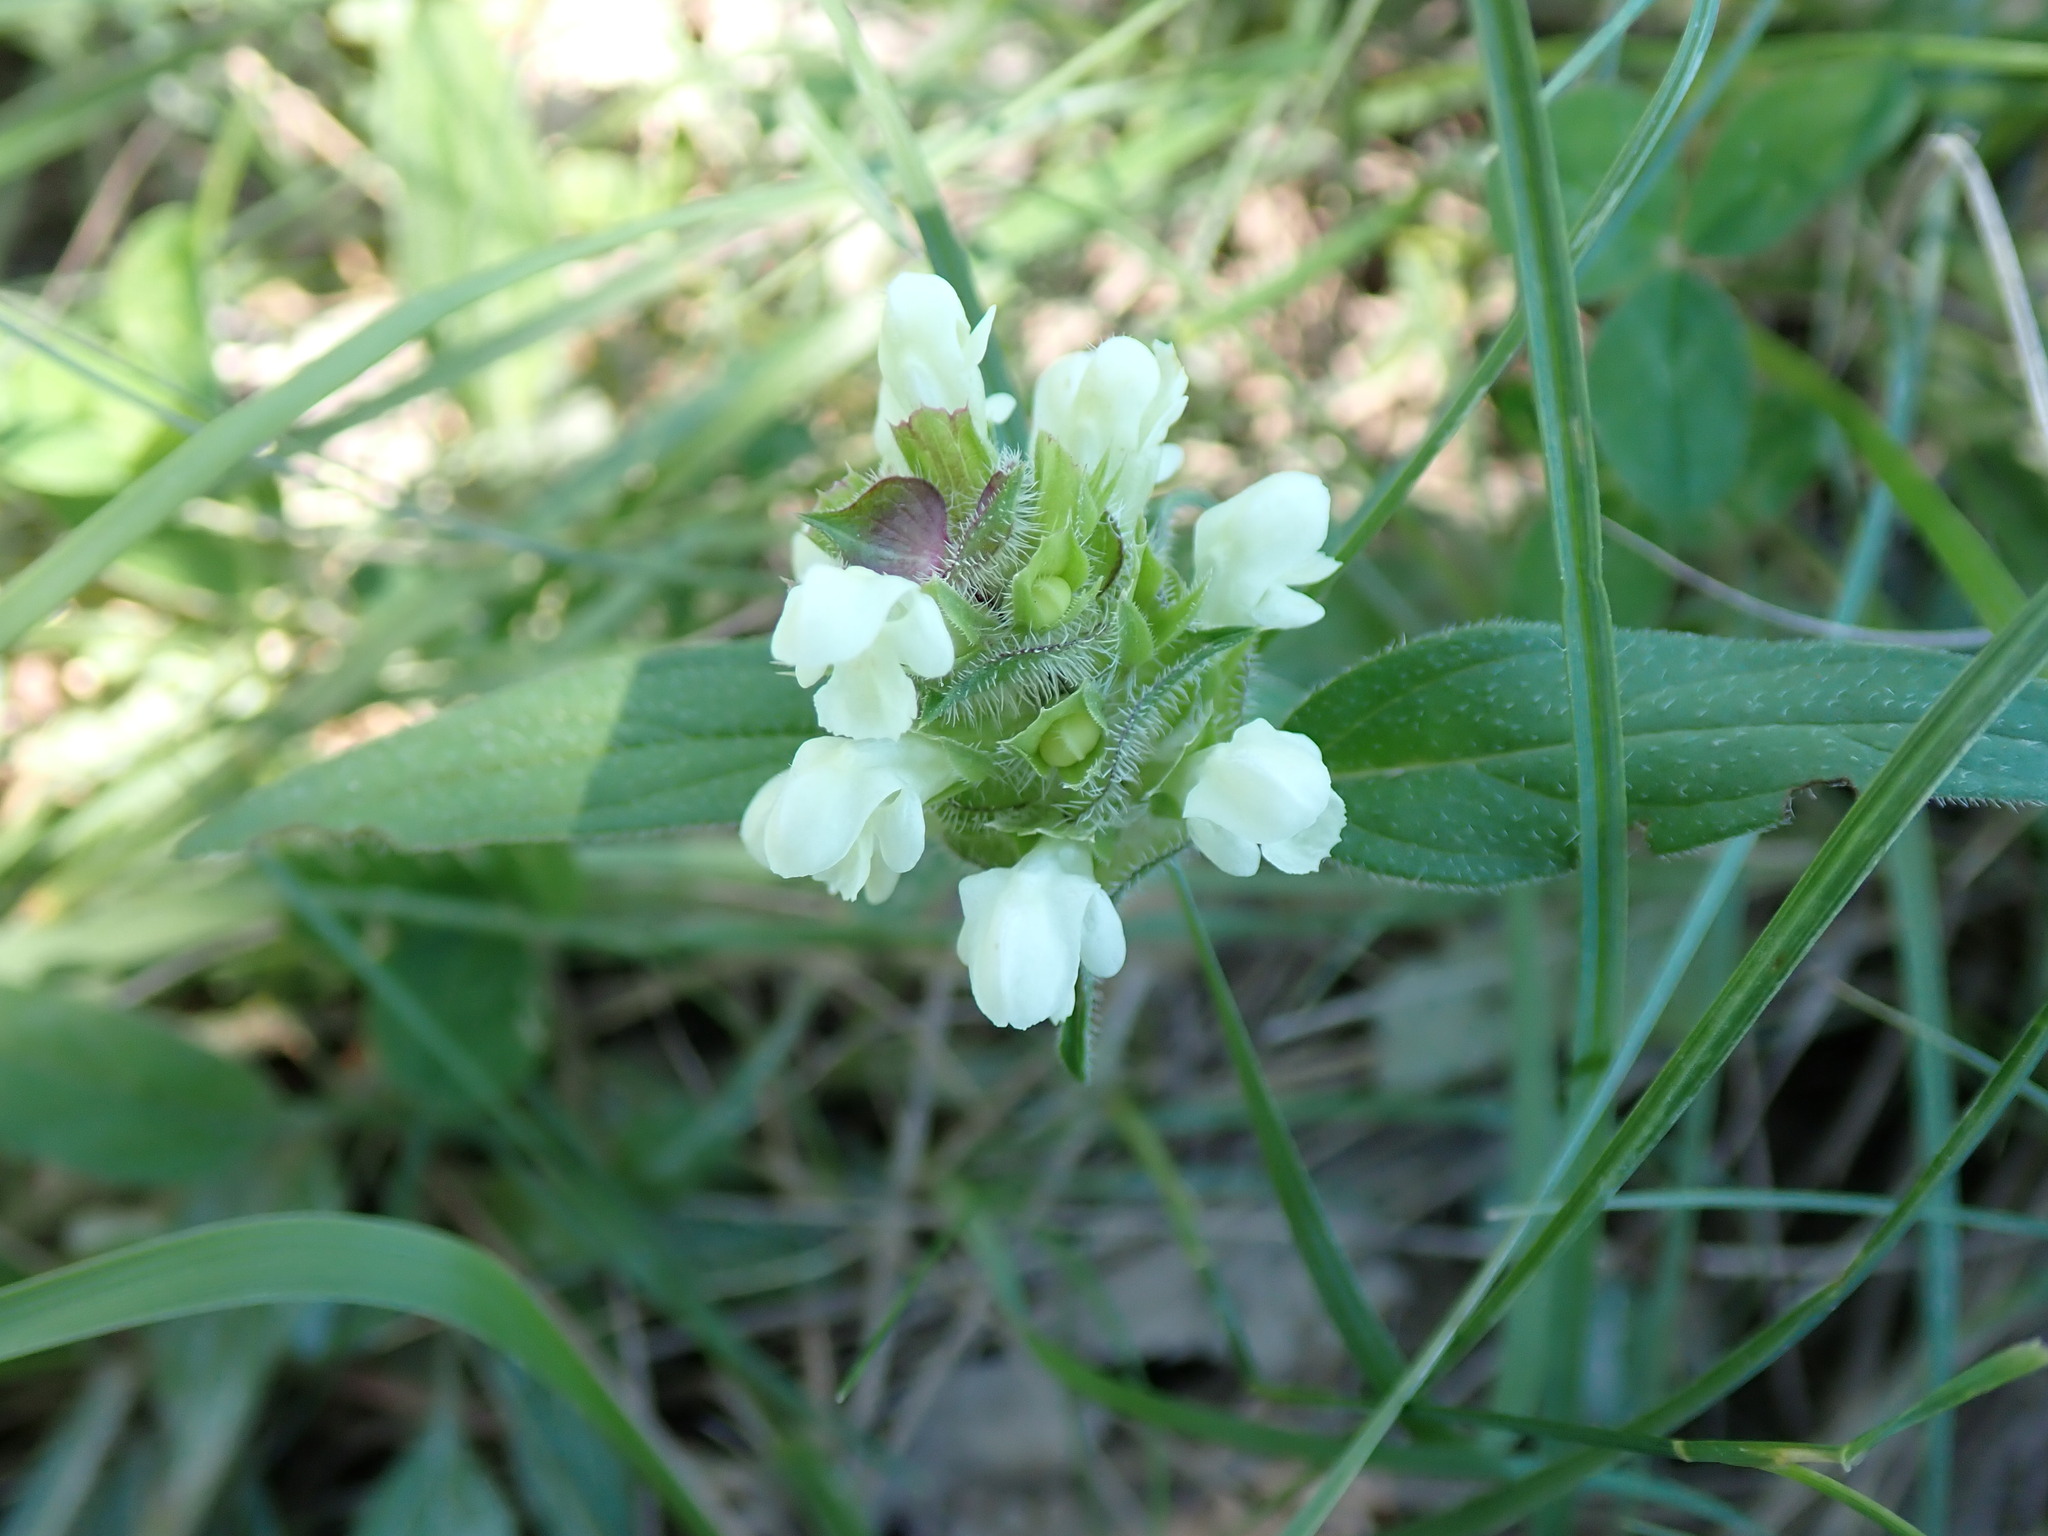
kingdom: Plantae
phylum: Tracheophyta
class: Magnoliopsida
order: Lamiales
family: Lamiaceae
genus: Prunella
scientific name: Prunella laciniata
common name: Cut-leaved selfheal
